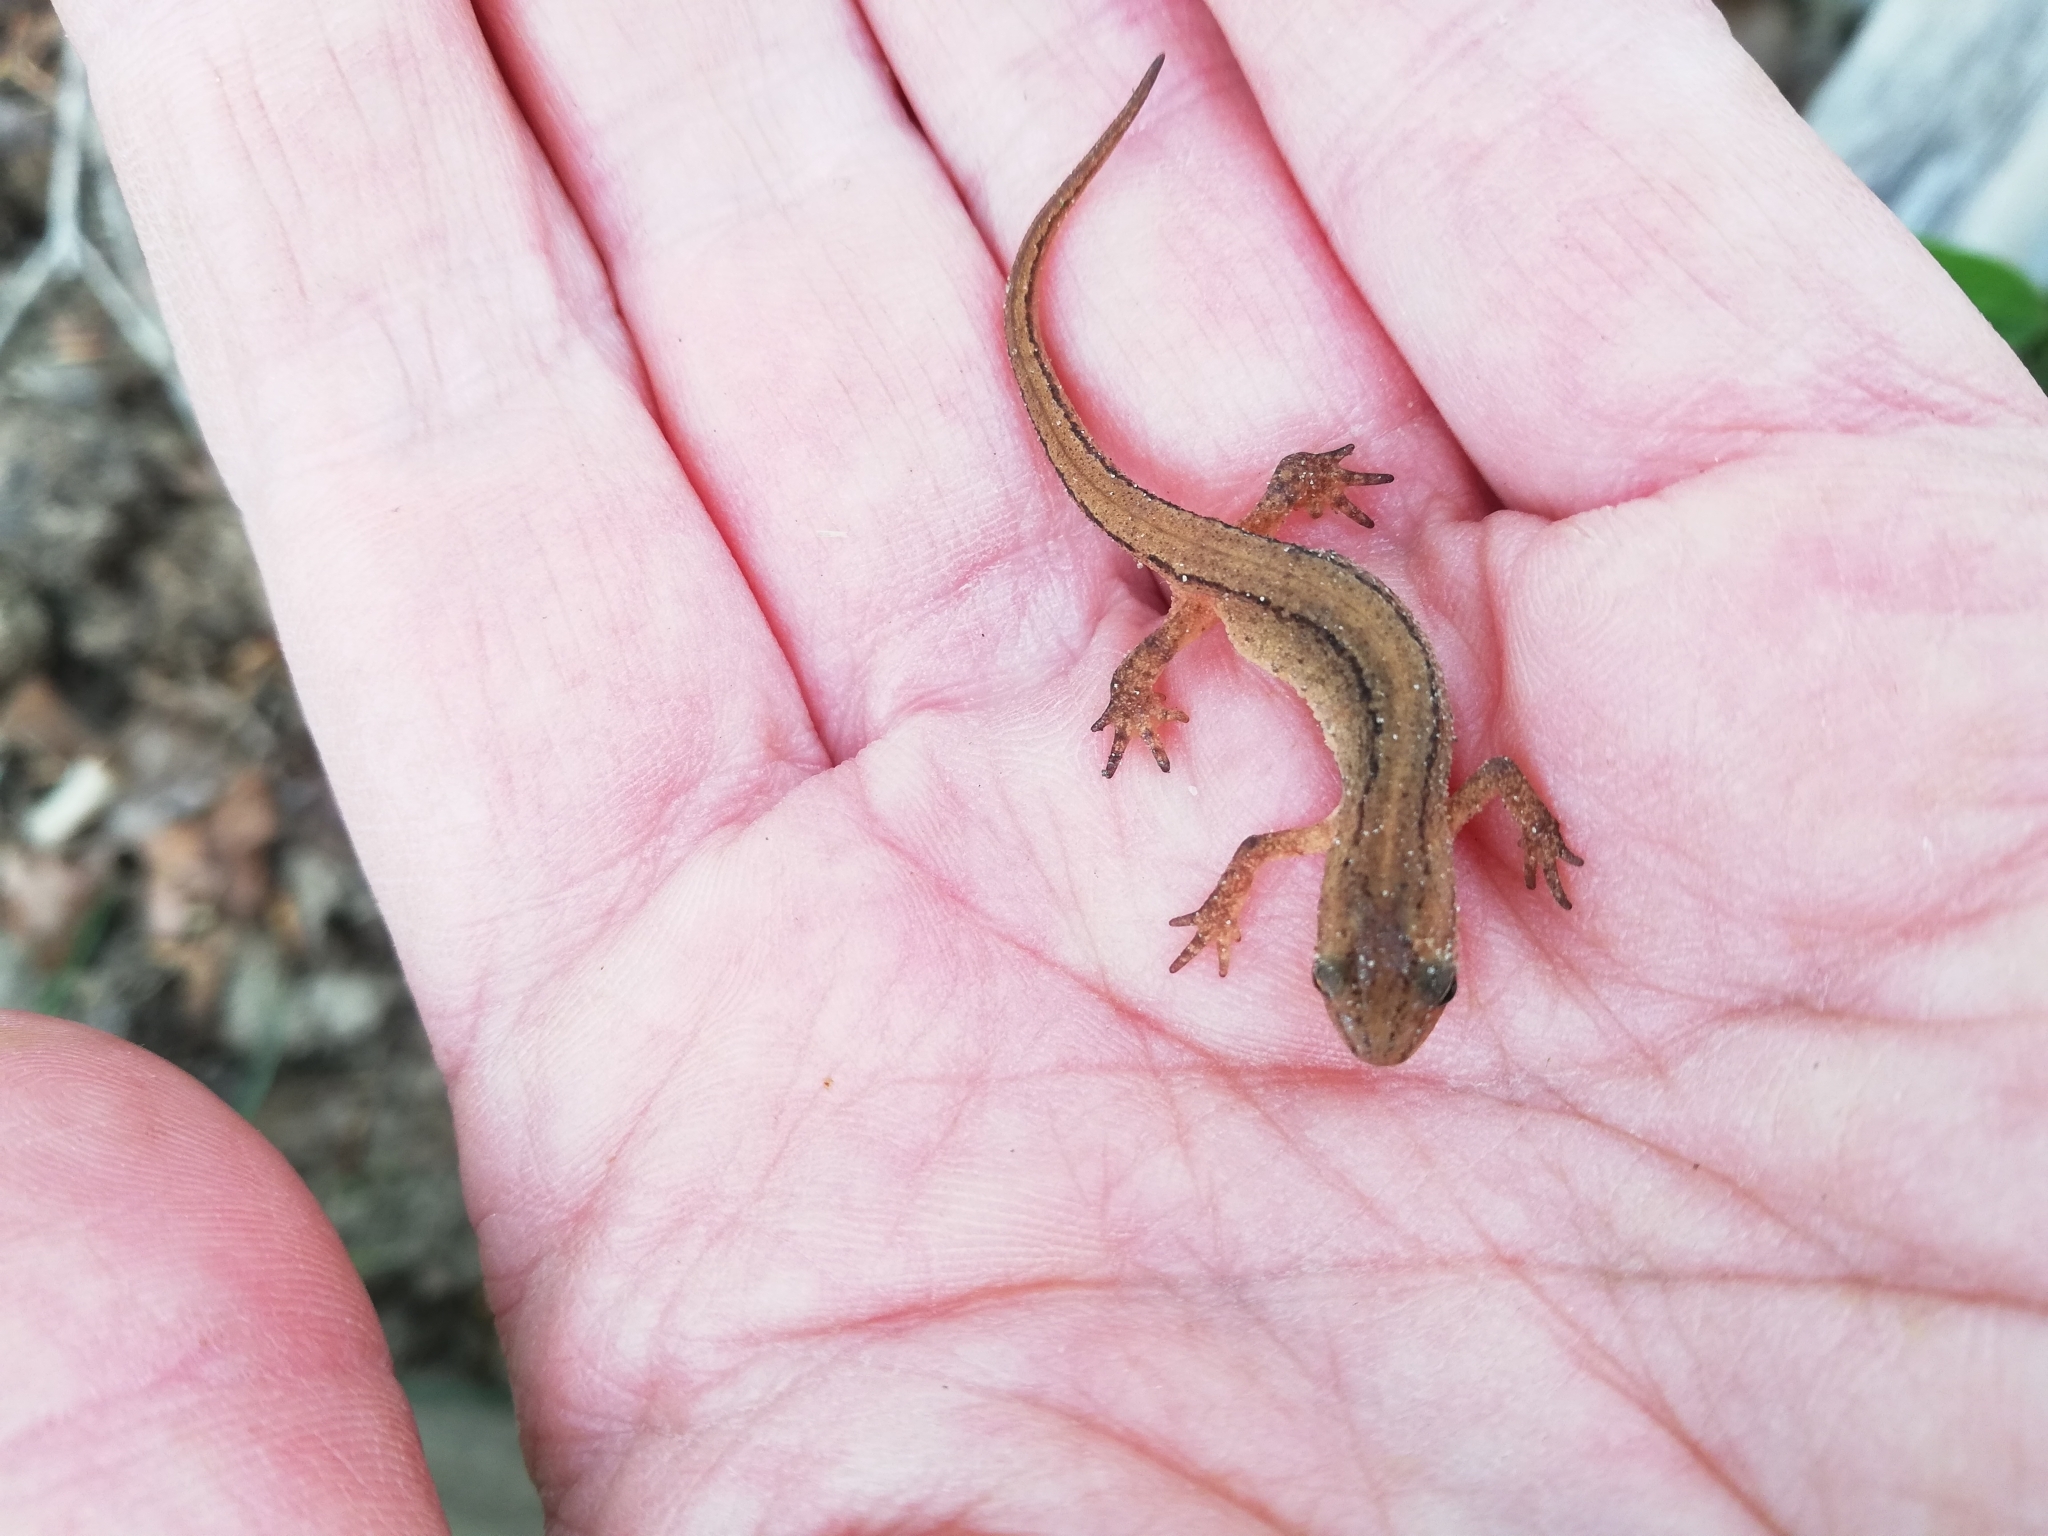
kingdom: Animalia
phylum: Chordata
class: Amphibia
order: Caudata
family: Salamandridae
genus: Lissotriton
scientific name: Lissotriton vulgaris
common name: Smooth newt
